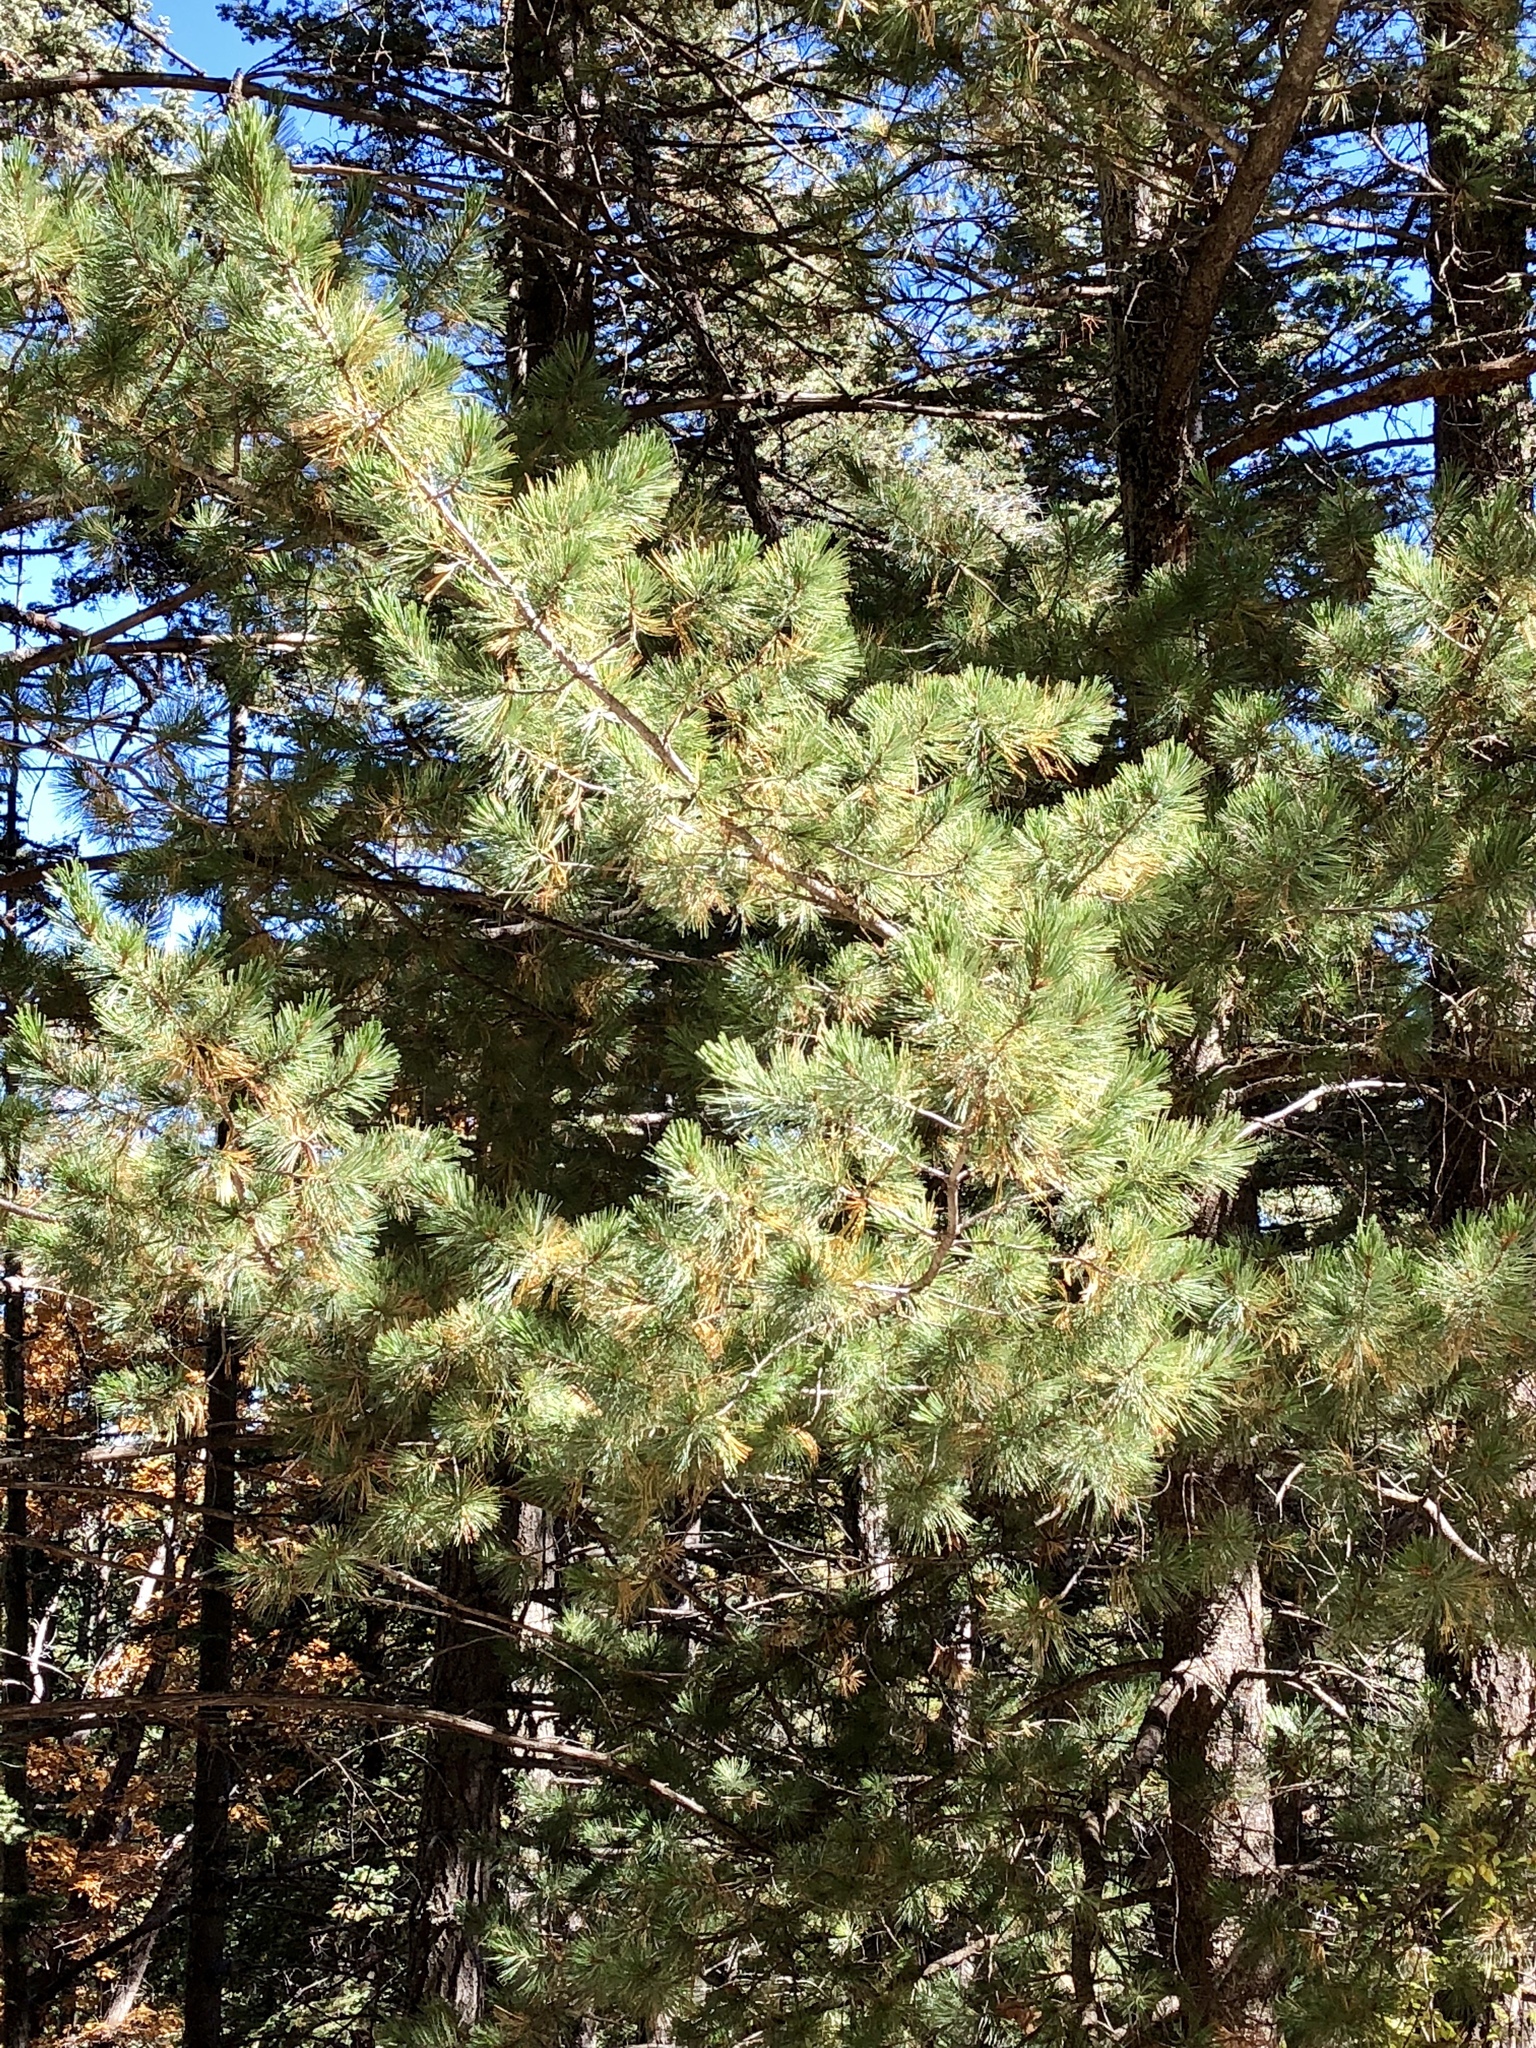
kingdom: Plantae
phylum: Tracheophyta
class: Pinopsida
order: Pinales
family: Pinaceae
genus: Pinus
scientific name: Pinus strobiformis
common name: Southwestern white pine
